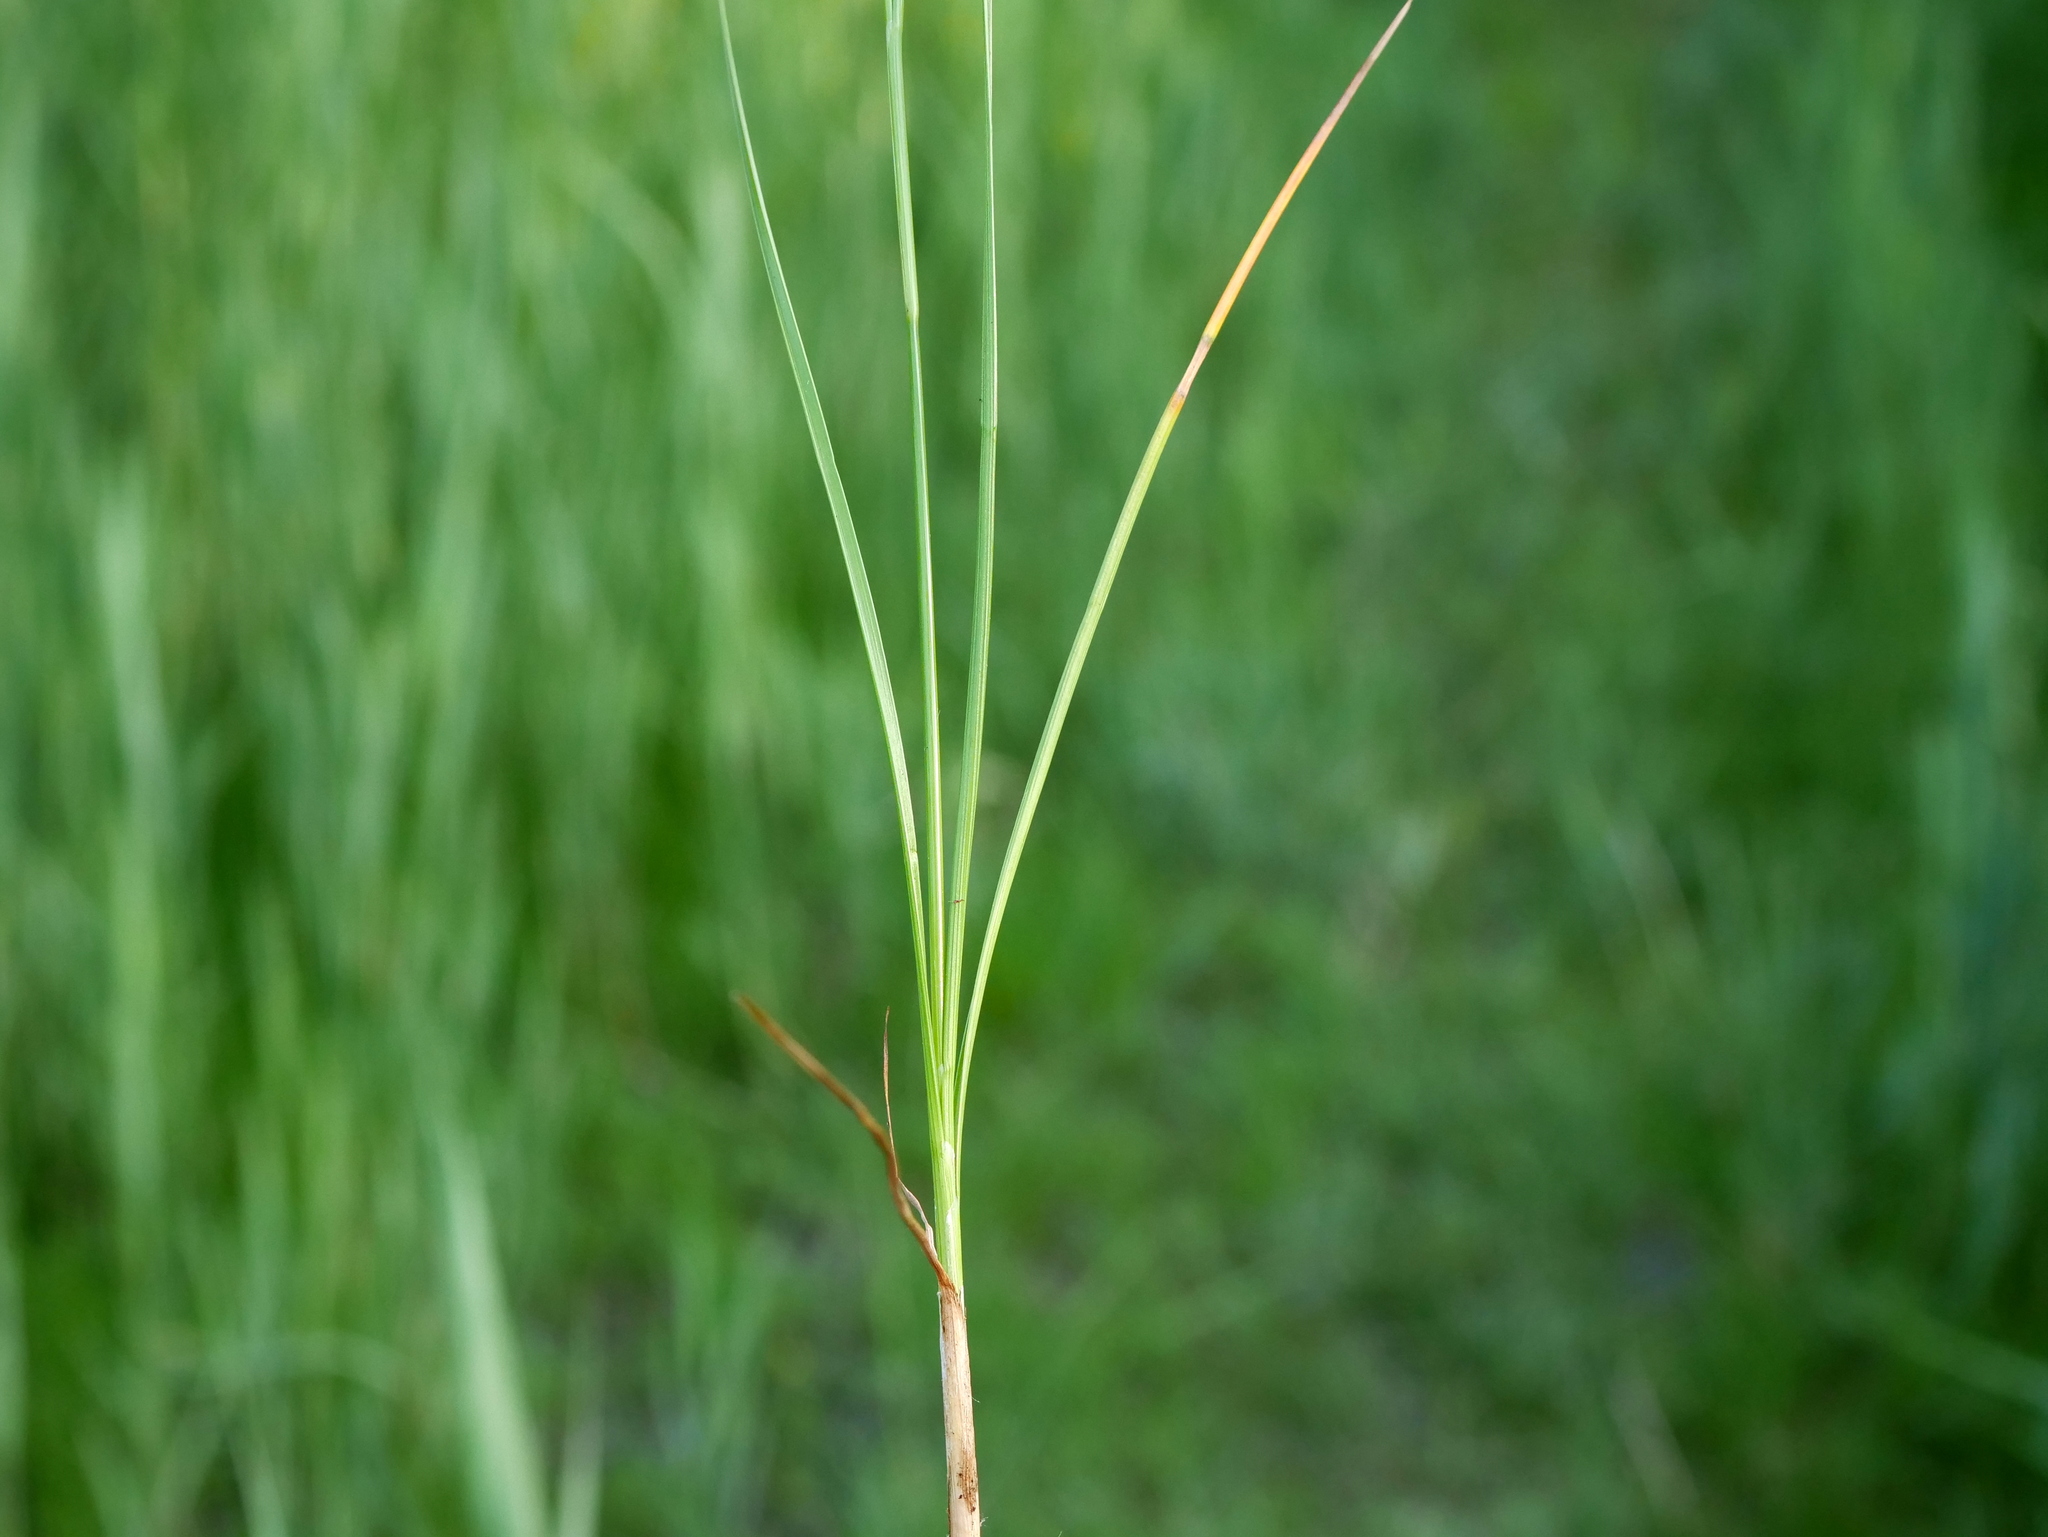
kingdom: Plantae
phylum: Tracheophyta
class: Liliopsida
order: Poales
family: Juncaceae
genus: Juncus
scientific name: Juncus compressus
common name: Round-fruited rush
